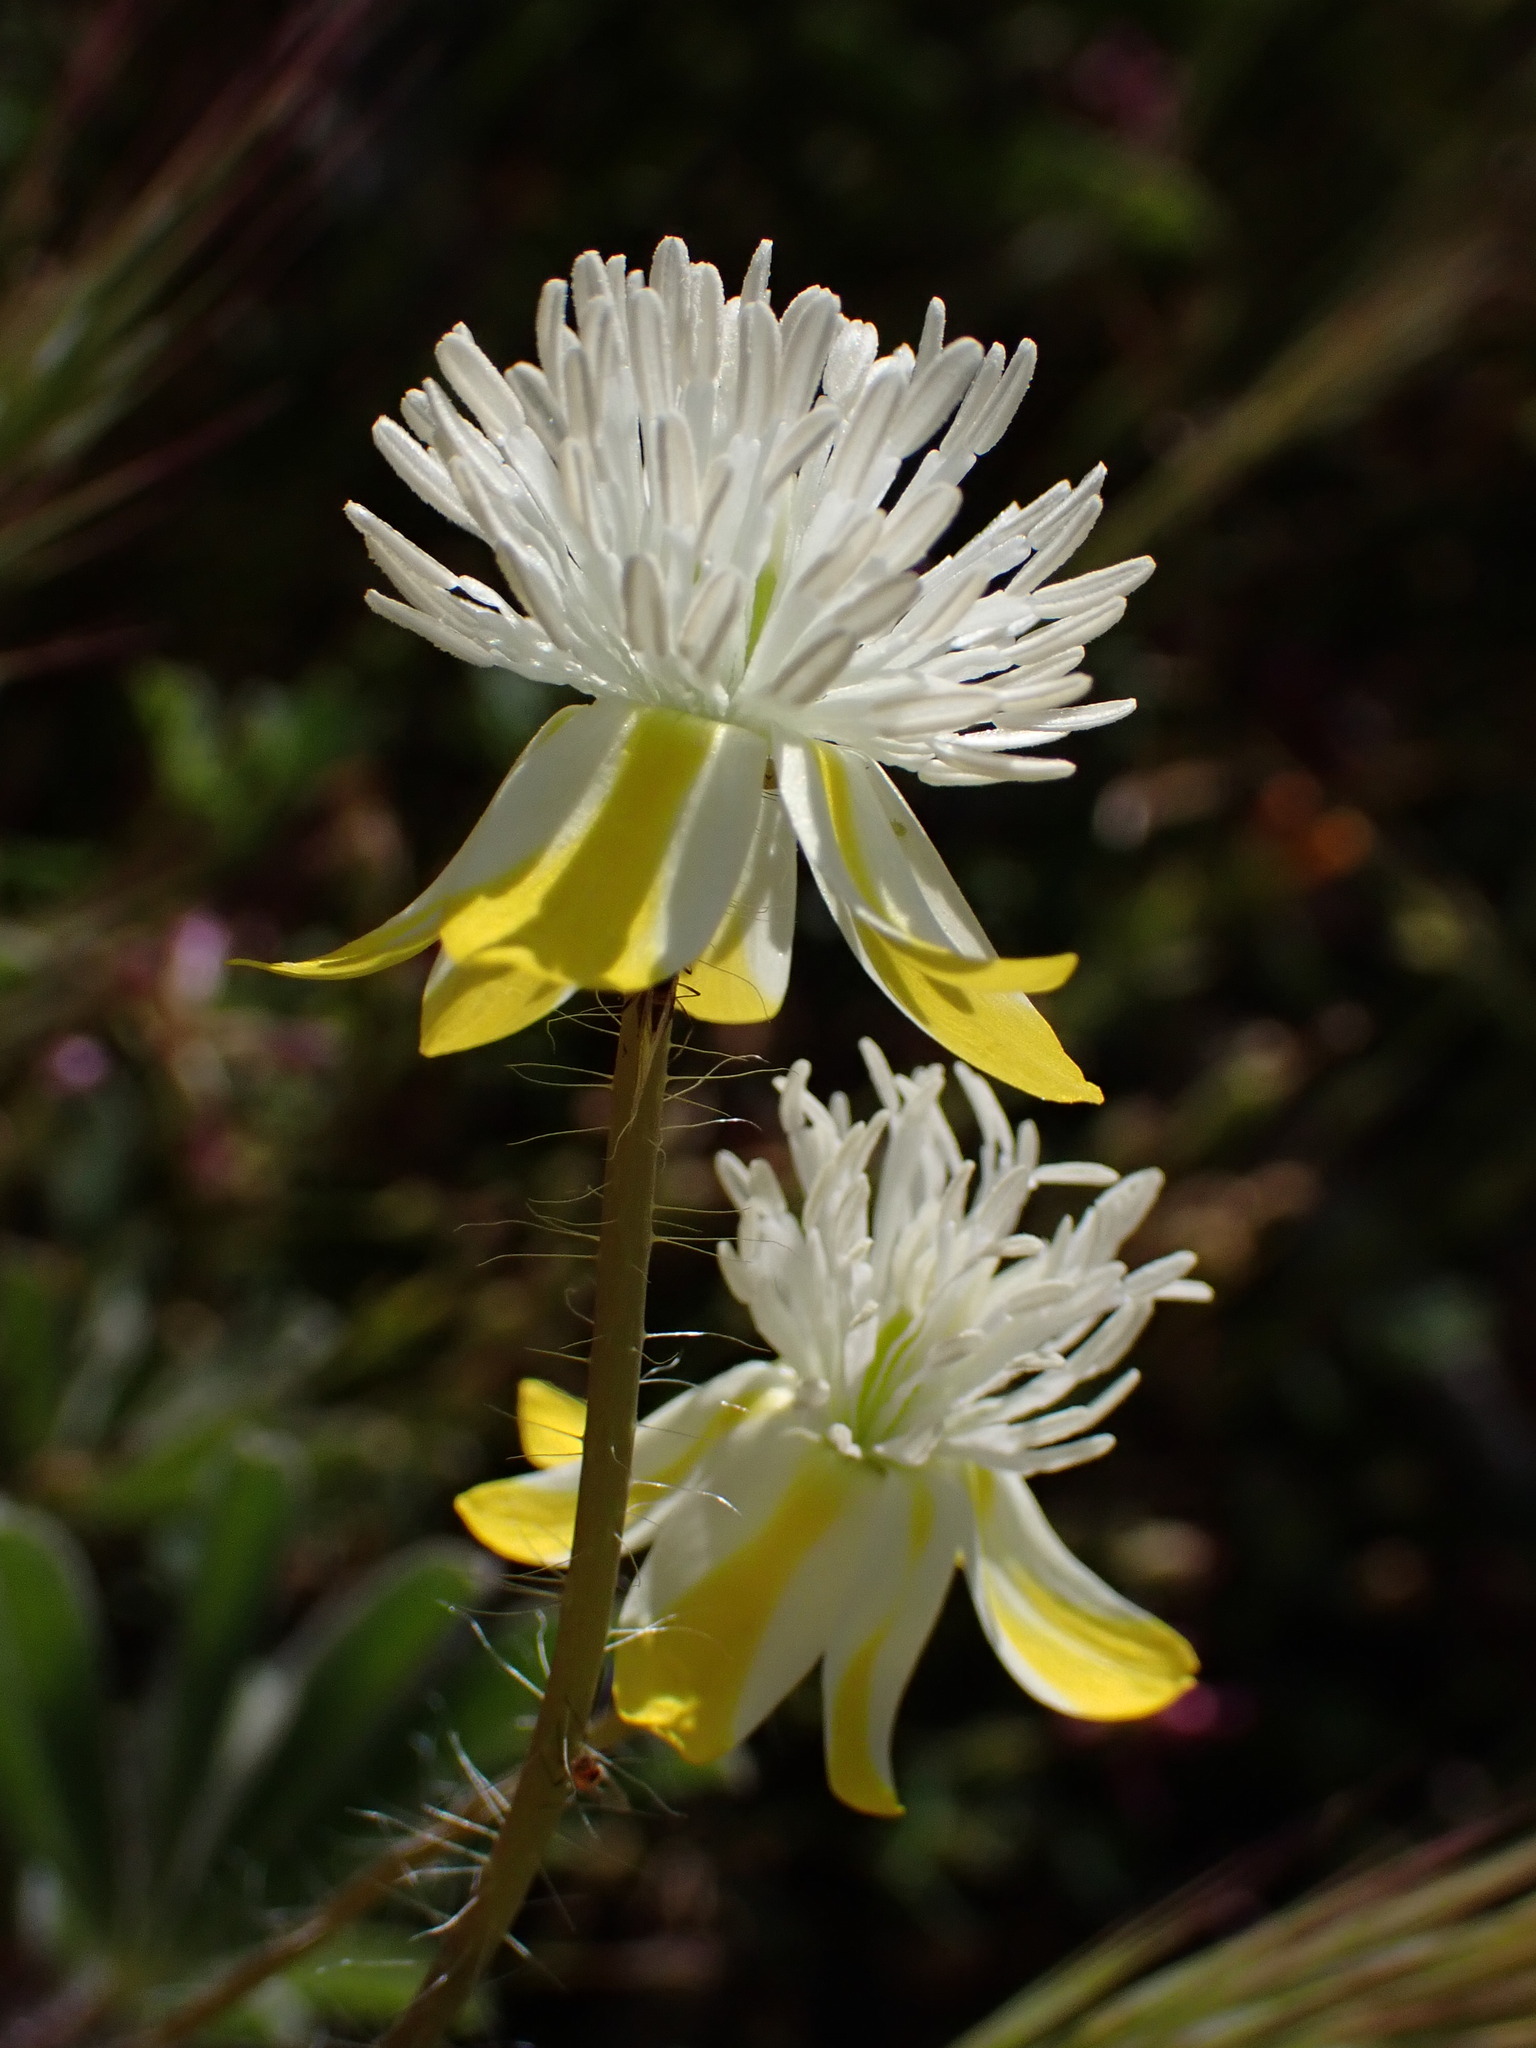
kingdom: Plantae
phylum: Tracheophyta
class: Magnoliopsida
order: Ranunculales
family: Papaveraceae
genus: Platystemon
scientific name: Platystemon californicus
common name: Cream-cups
